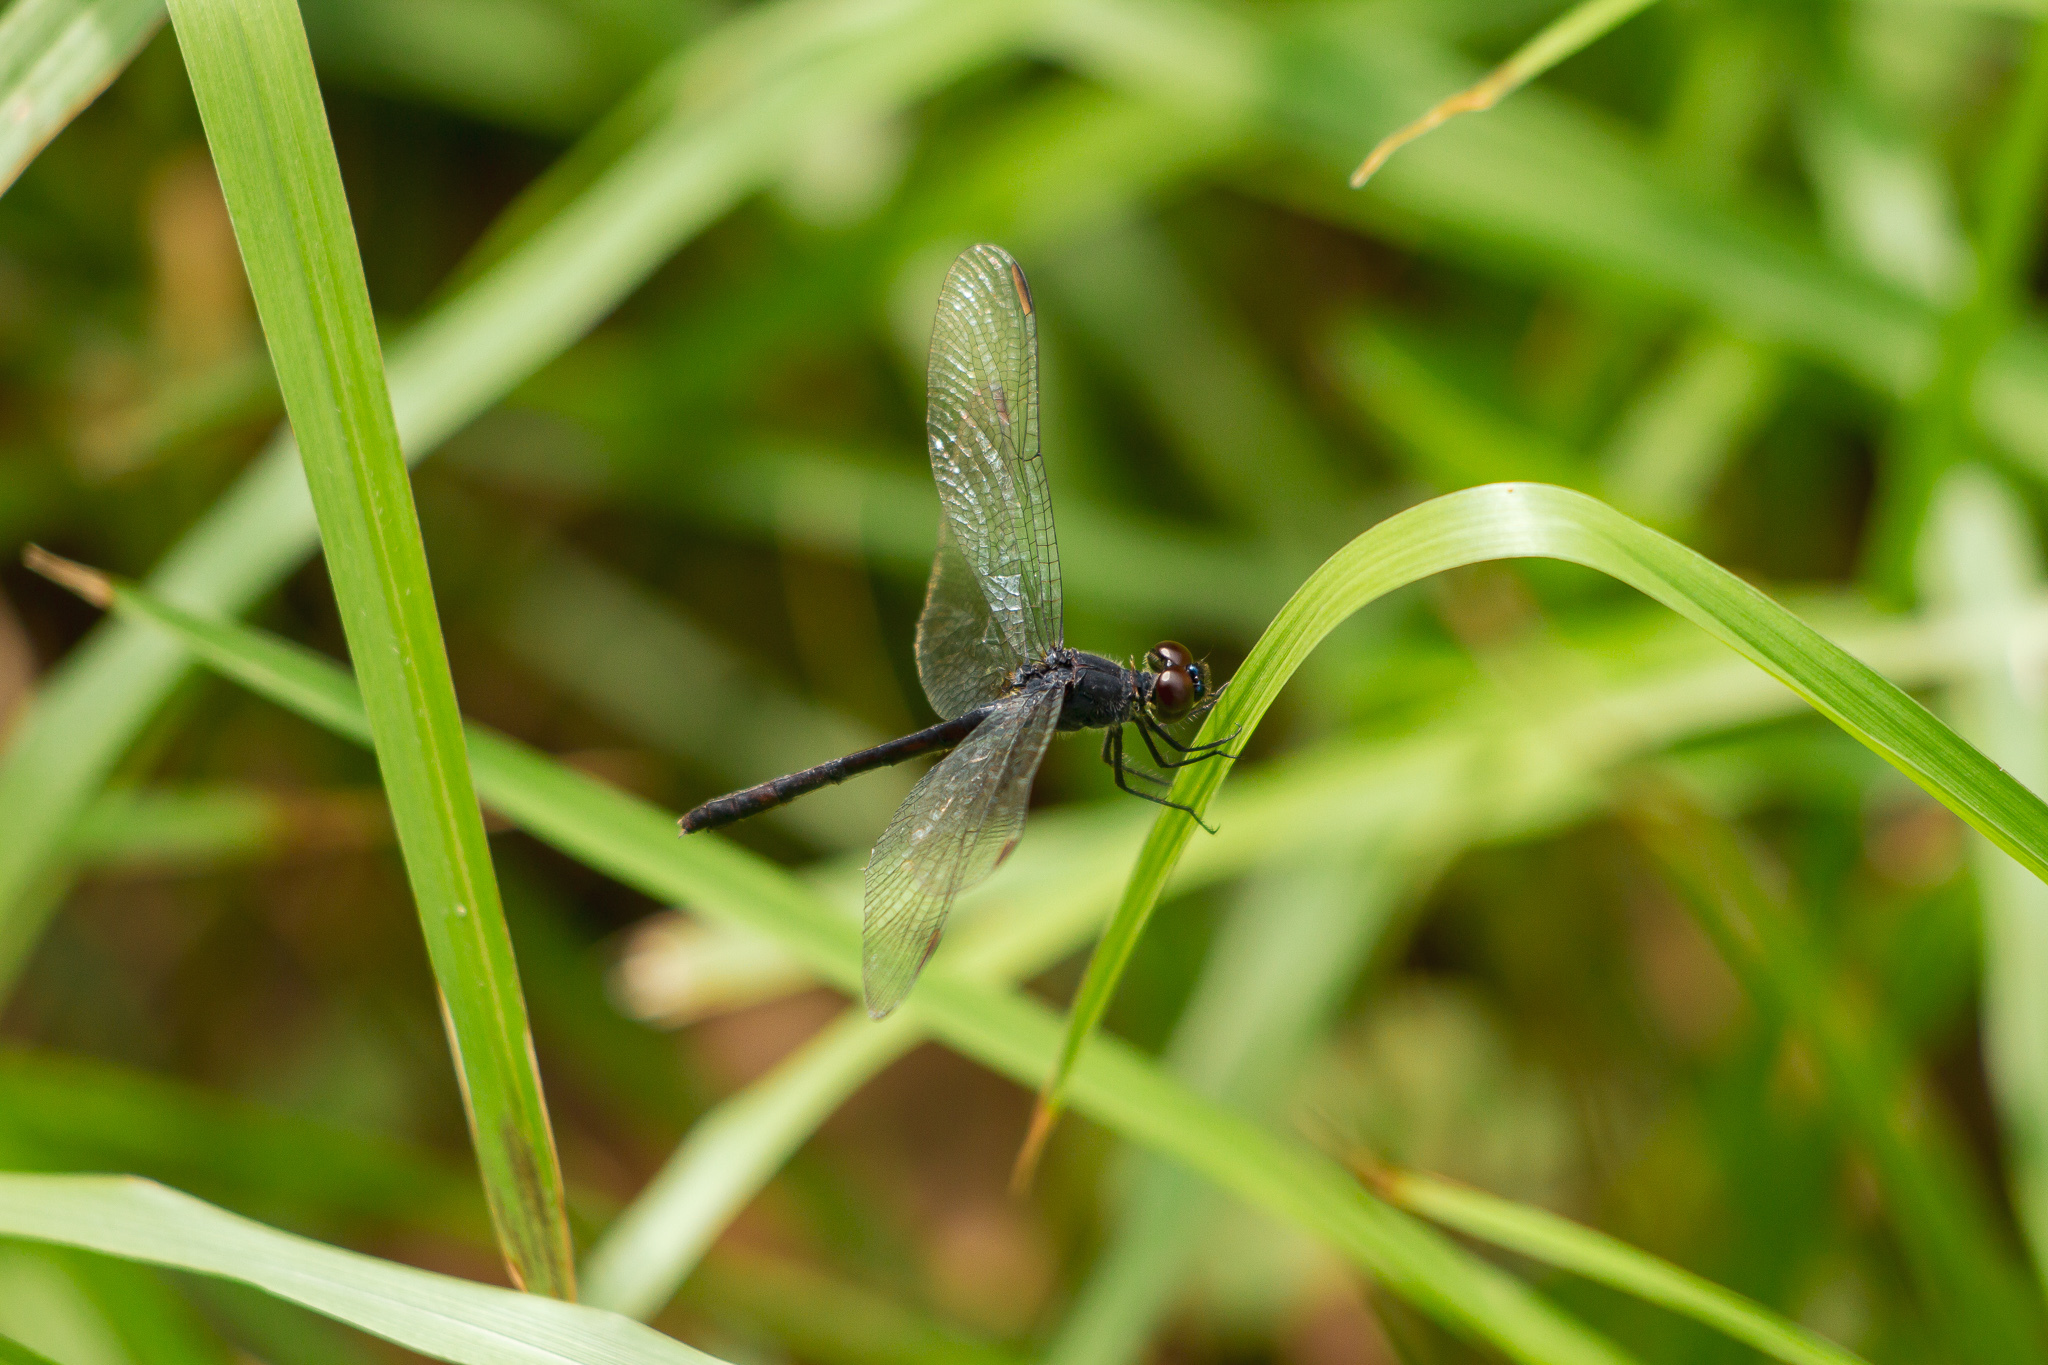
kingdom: Animalia
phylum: Arthropoda
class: Insecta
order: Odonata
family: Libellulidae
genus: Erythrodiplax
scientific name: Erythrodiplax berenice
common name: Seaside dragonlet
